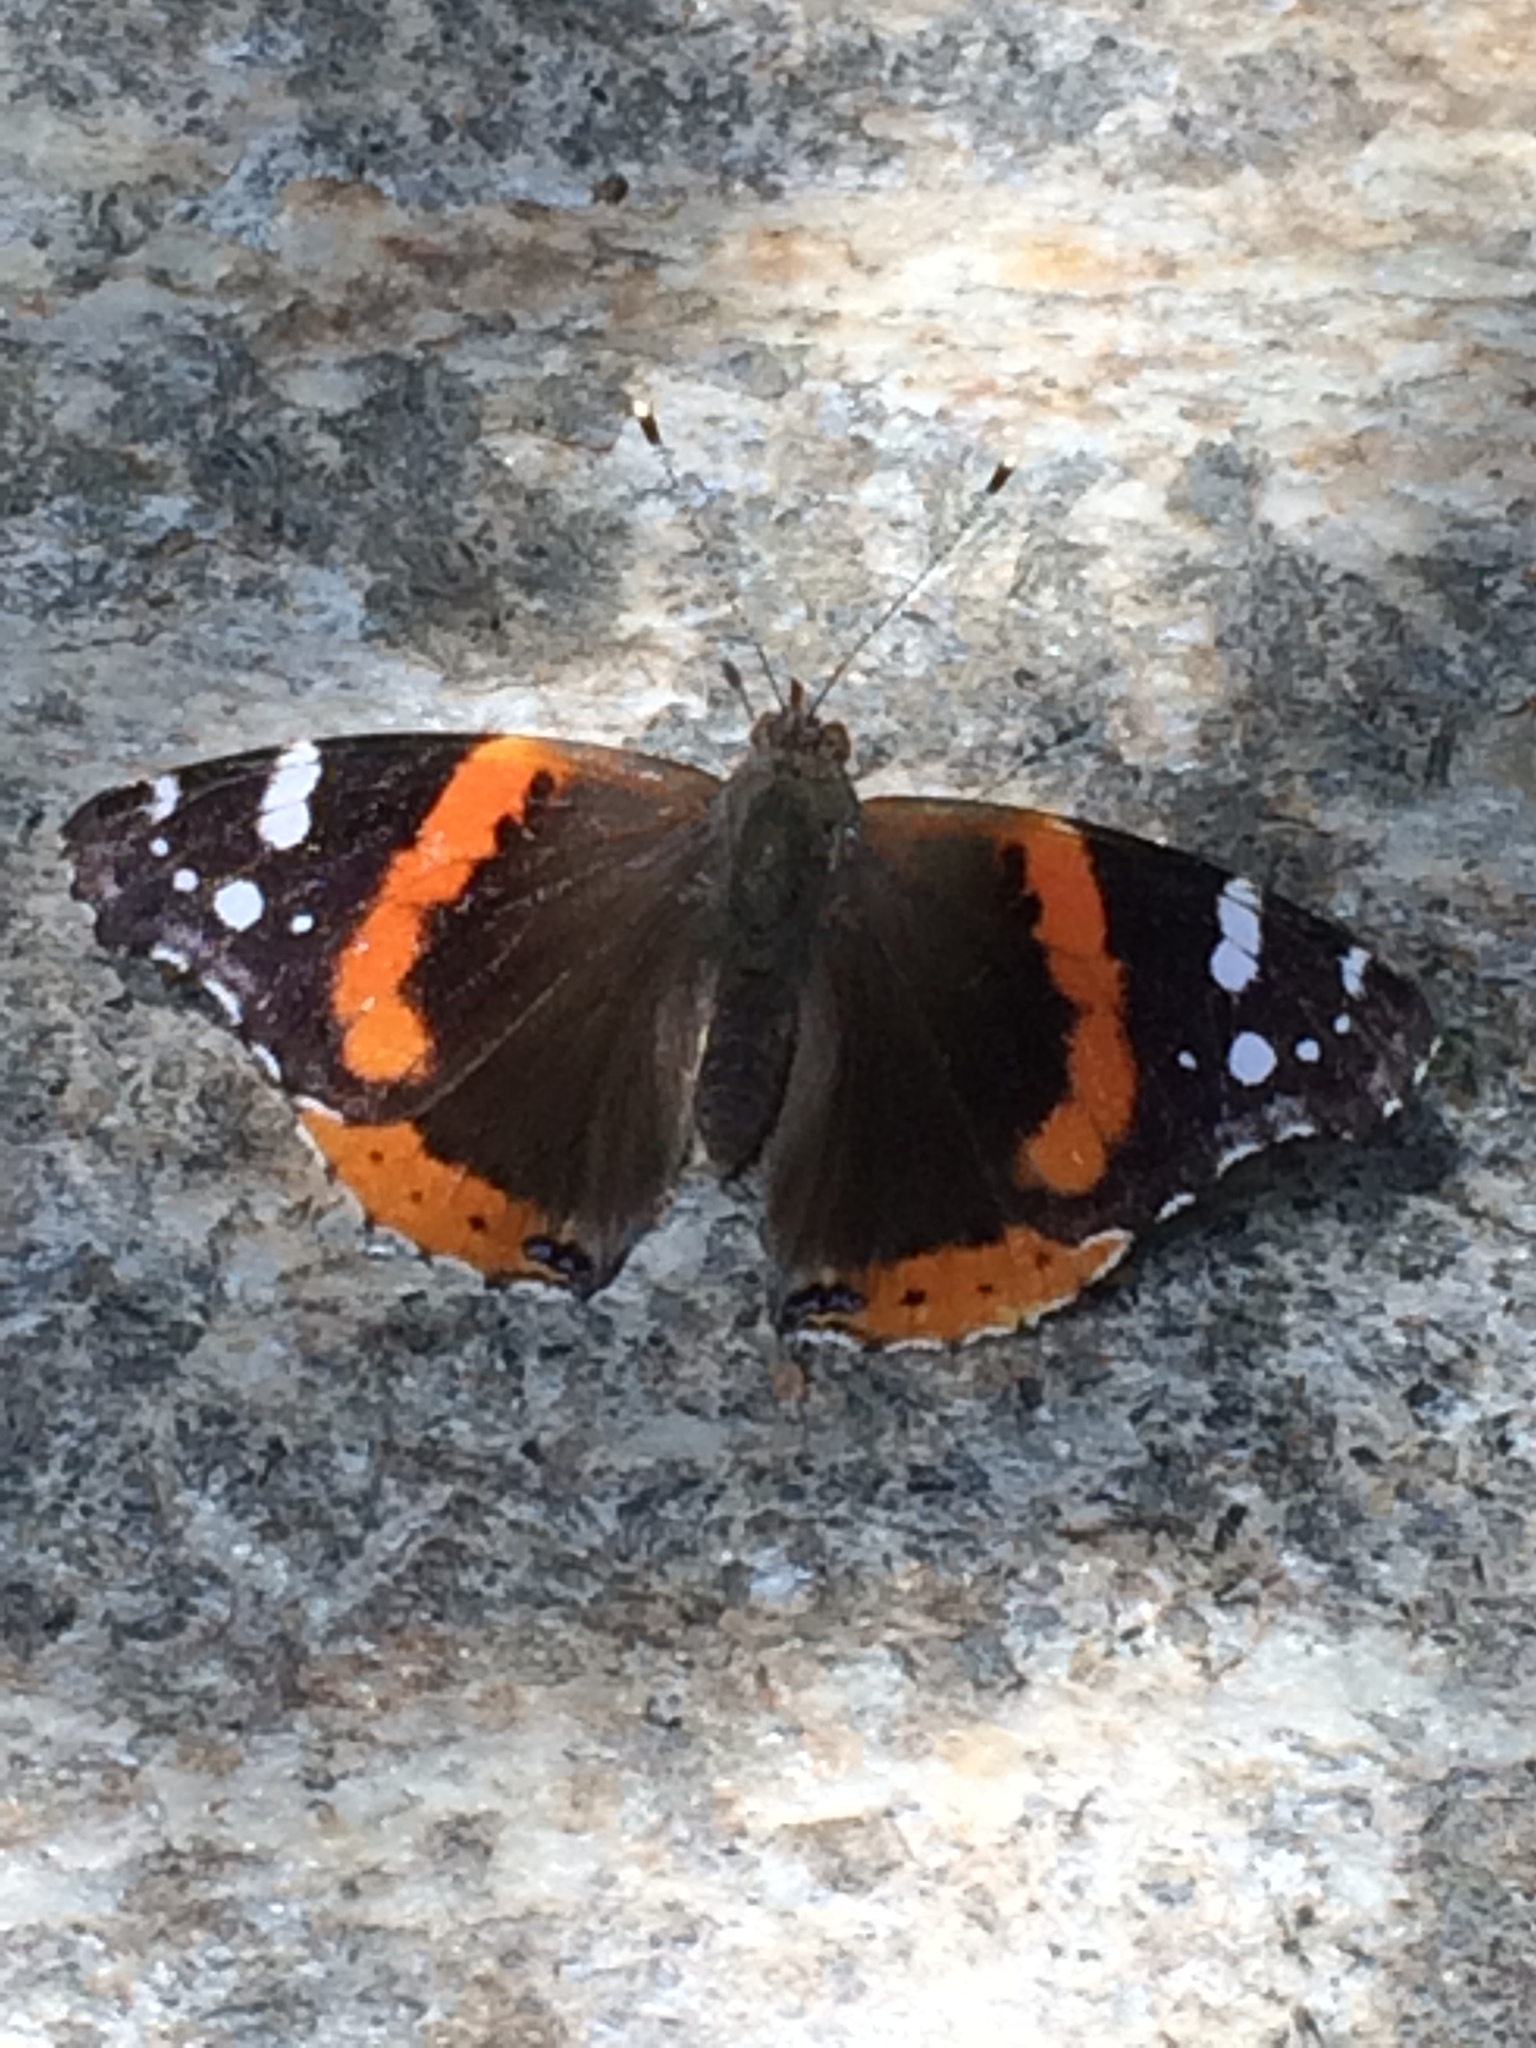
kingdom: Animalia
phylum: Arthropoda
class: Insecta
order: Lepidoptera
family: Nymphalidae
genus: Vanessa
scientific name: Vanessa atalanta
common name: Red admiral
